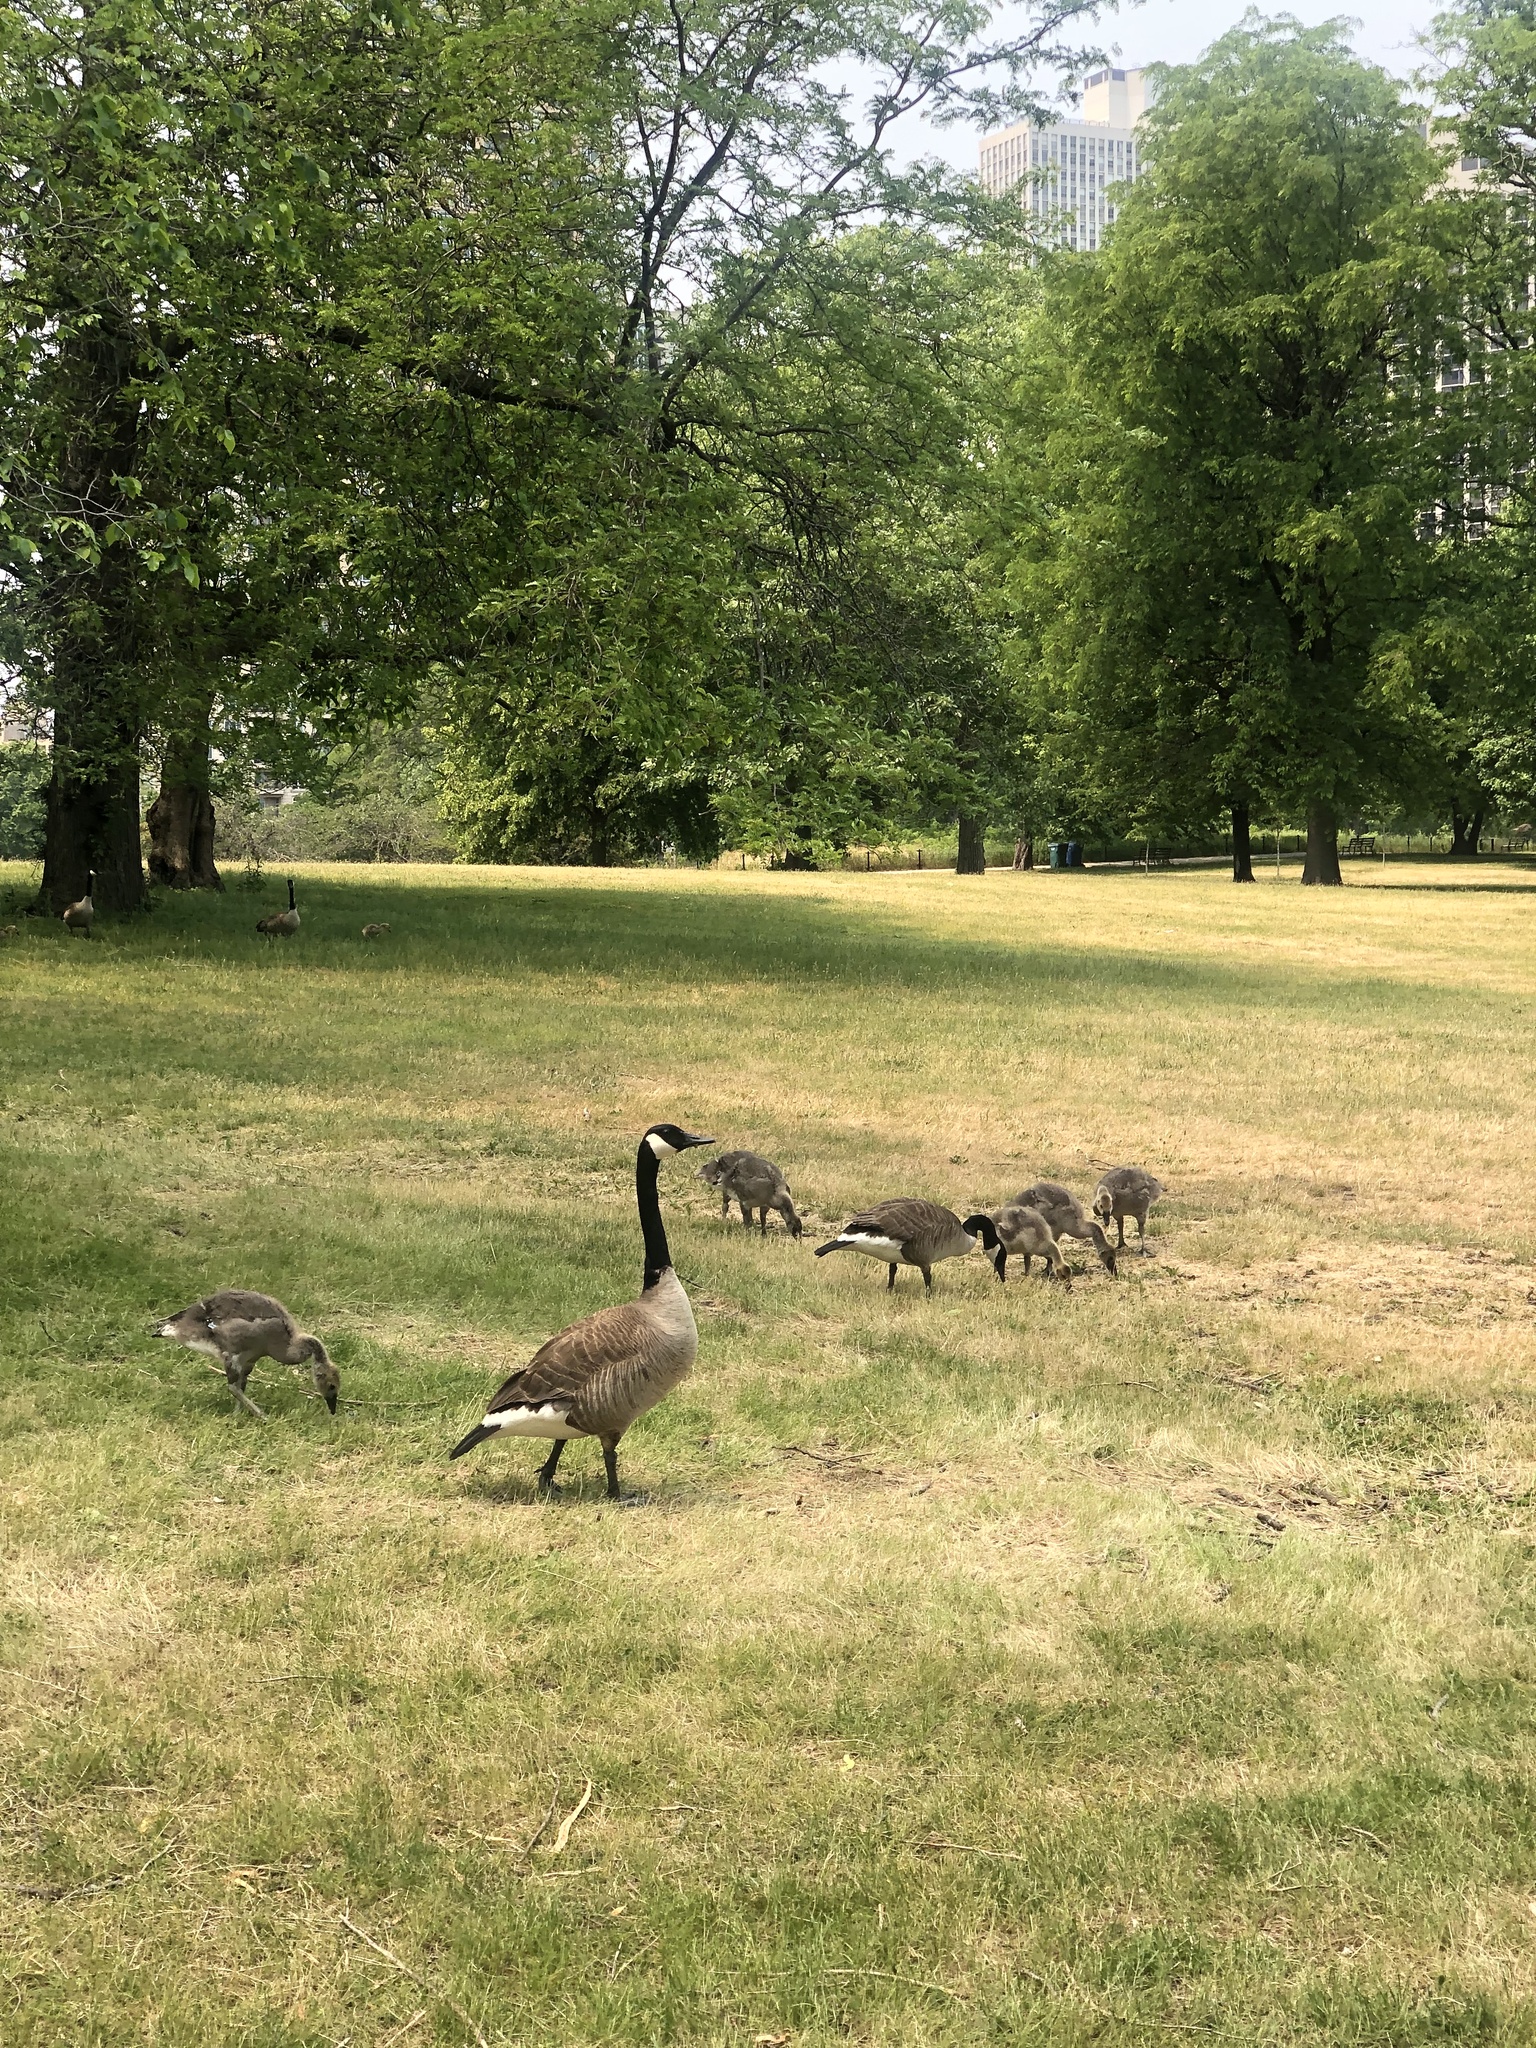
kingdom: Animalia
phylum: Chordata
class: Aves
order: Anseriformes
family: Anatidae
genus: Branta
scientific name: Branta canadensis
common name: Canada goose
